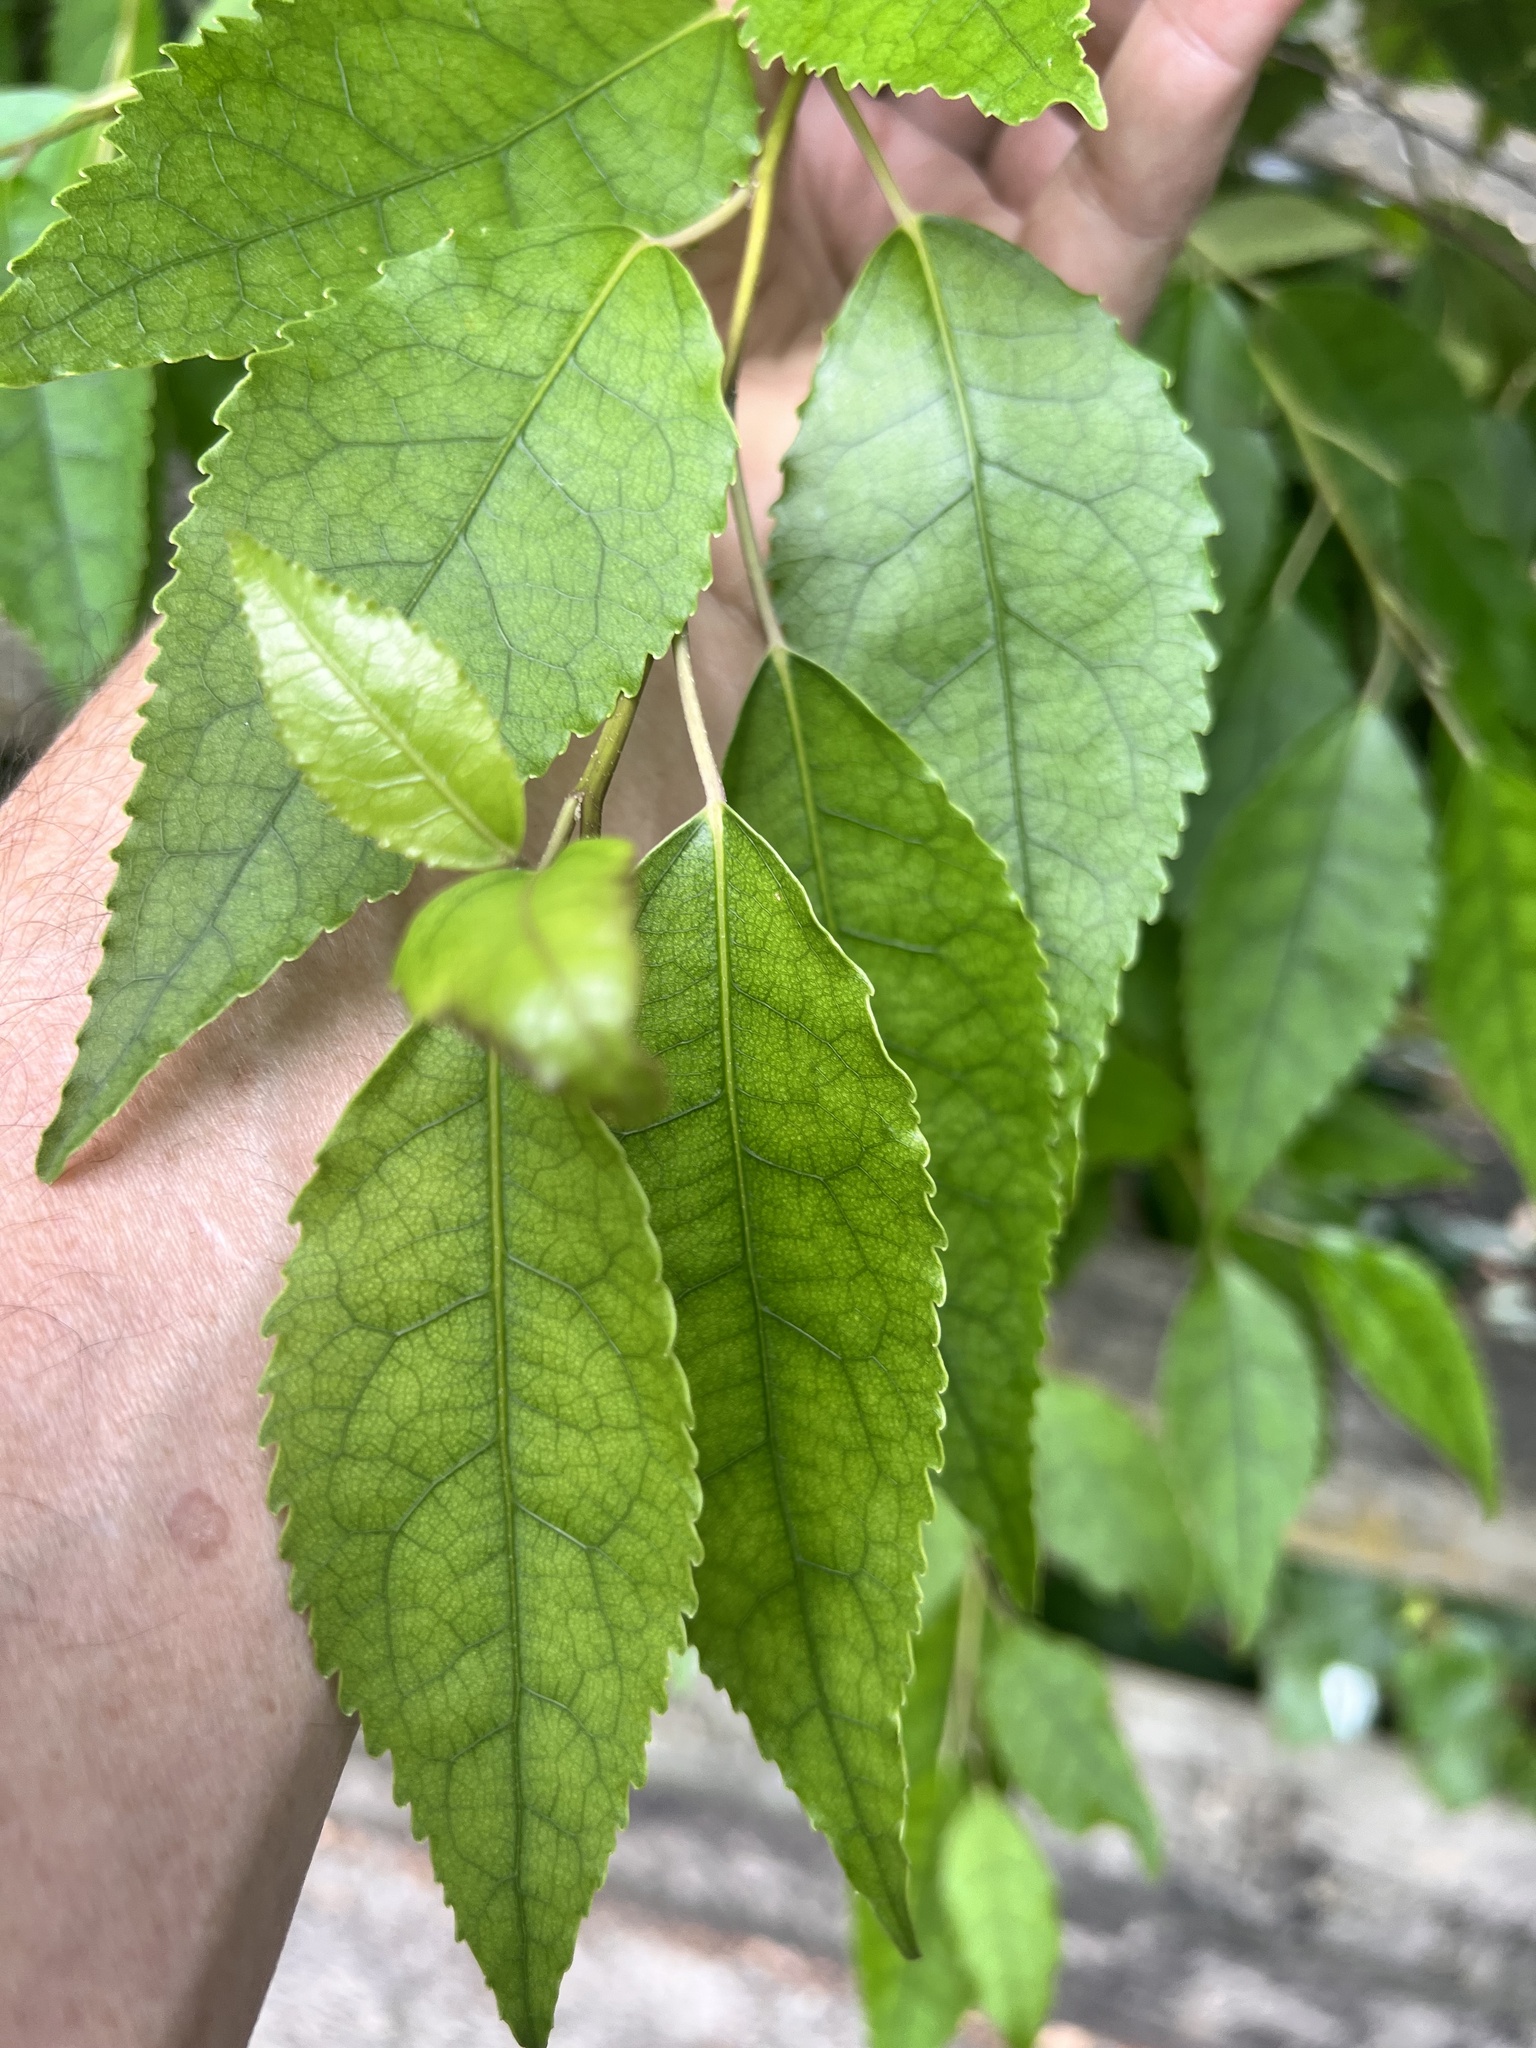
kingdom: Plantae
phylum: Tracheophyta
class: Magnoliopsida
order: Malvales
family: Malvaceae
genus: Hoheria
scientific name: Hoheria populnea
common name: Lacebark
